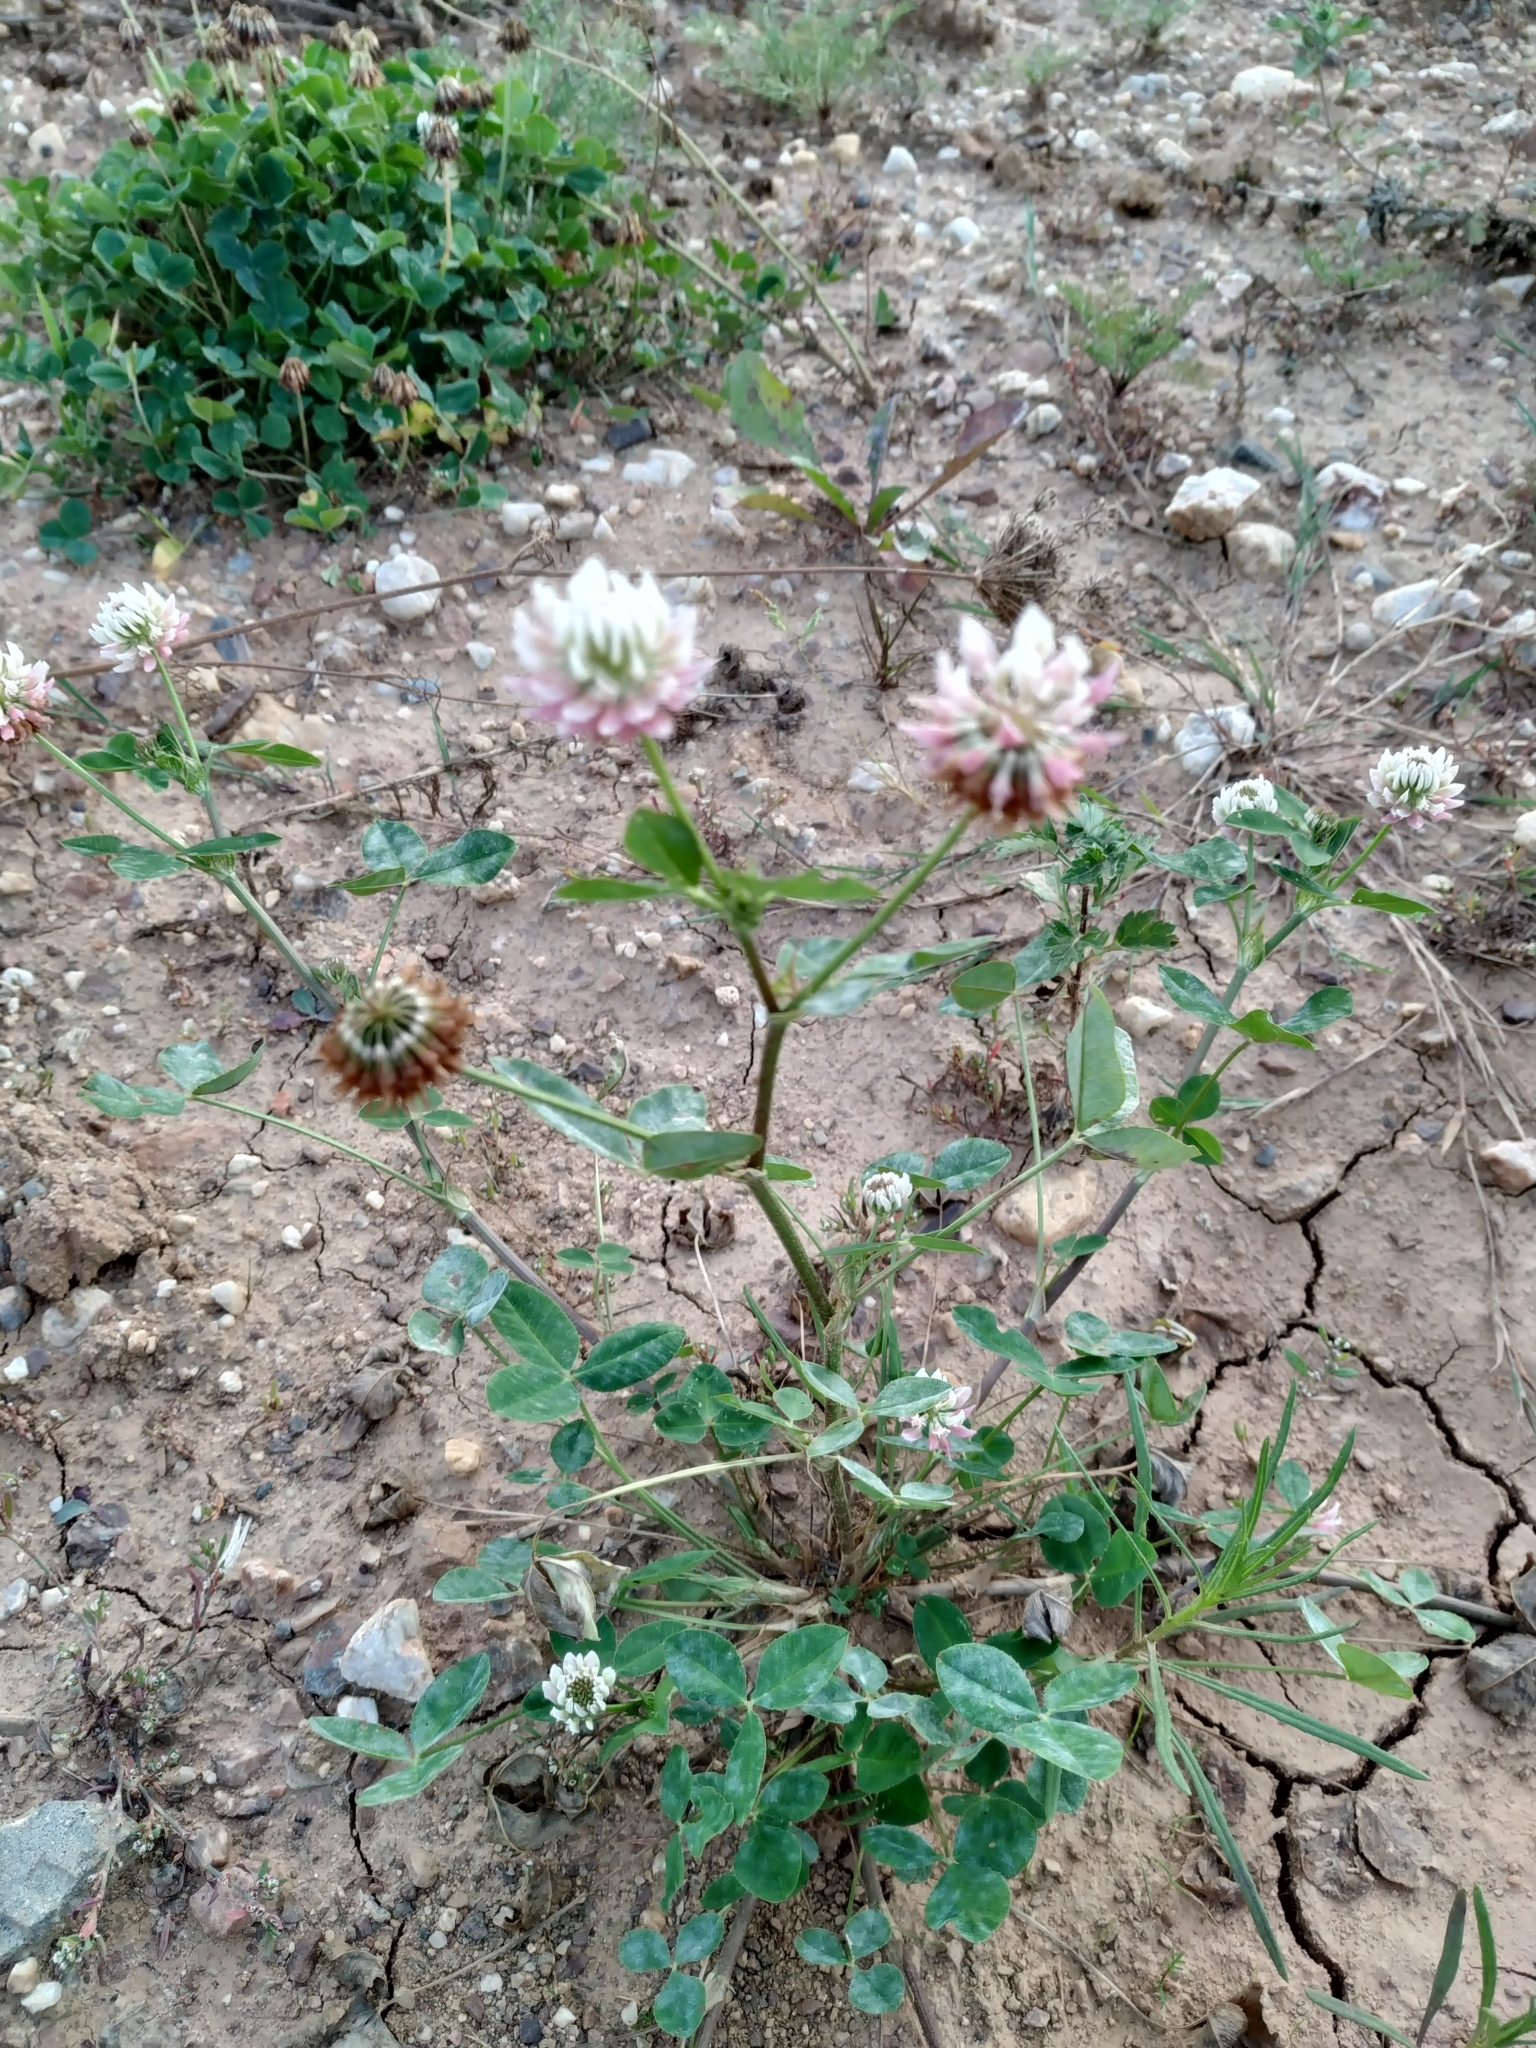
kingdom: Plantae
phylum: Tracheophyta
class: Magnoliopsida
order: Fabales
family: Fabaceae
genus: Trifolium
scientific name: Trifolium hybridum
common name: Alsike clover
